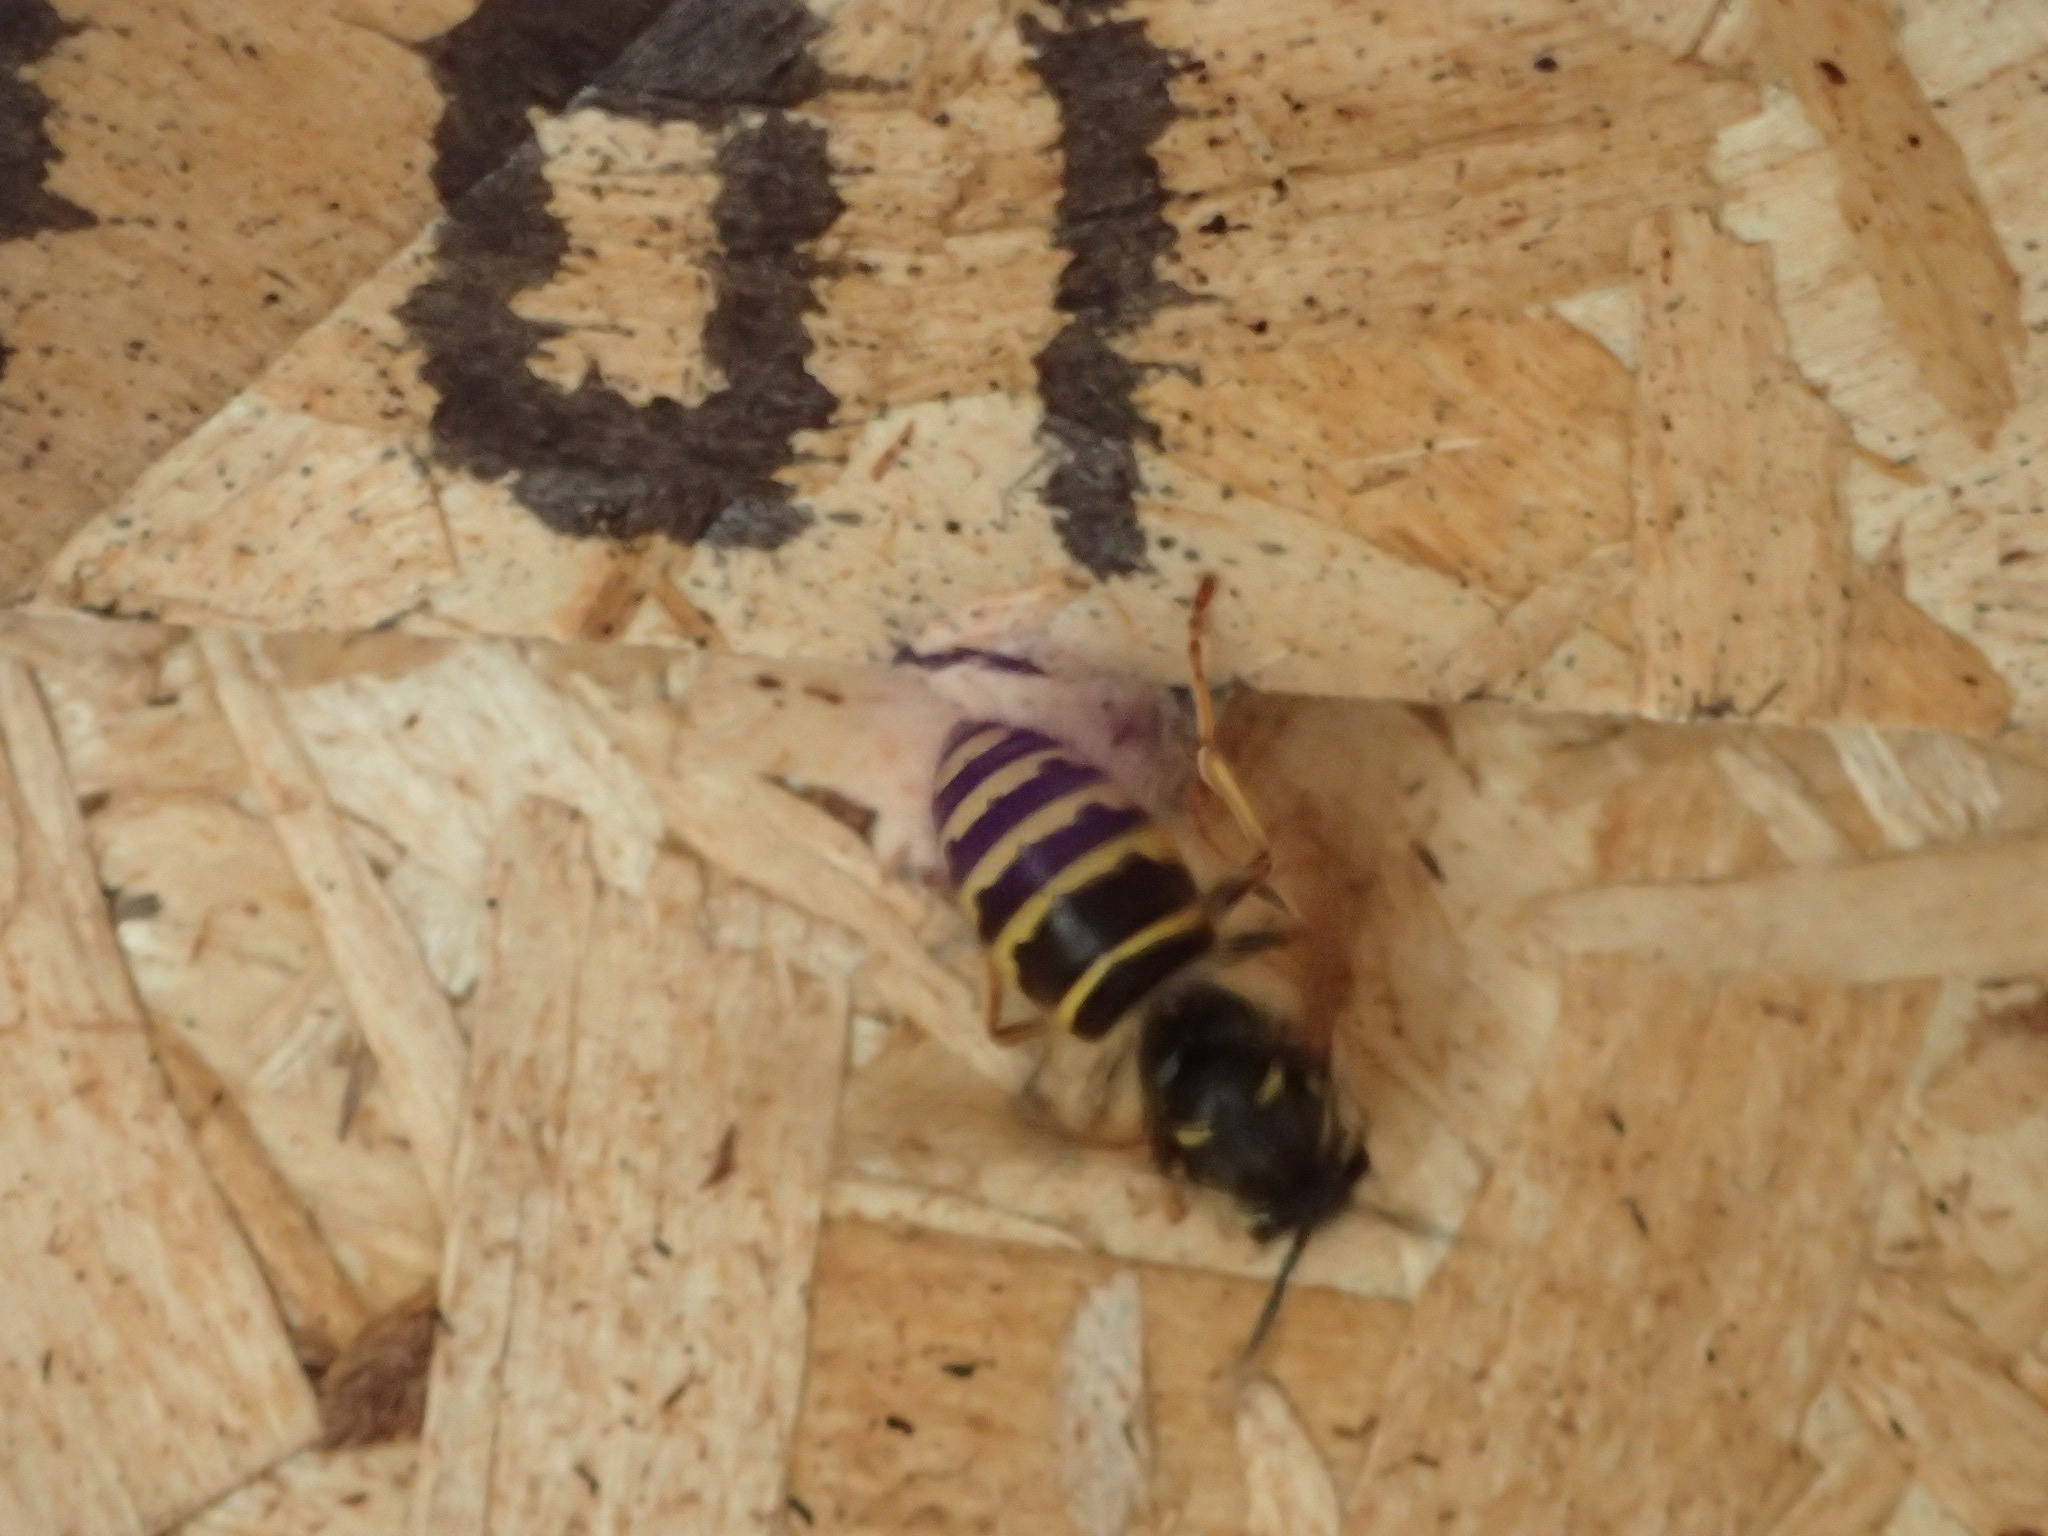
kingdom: Animalia
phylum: Arthropoda
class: Insecta
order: Hymenoptera
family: Vespidae
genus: Dolichovespula
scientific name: Dolichovespula norvegicoides
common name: Northern aerial yellowjacket
